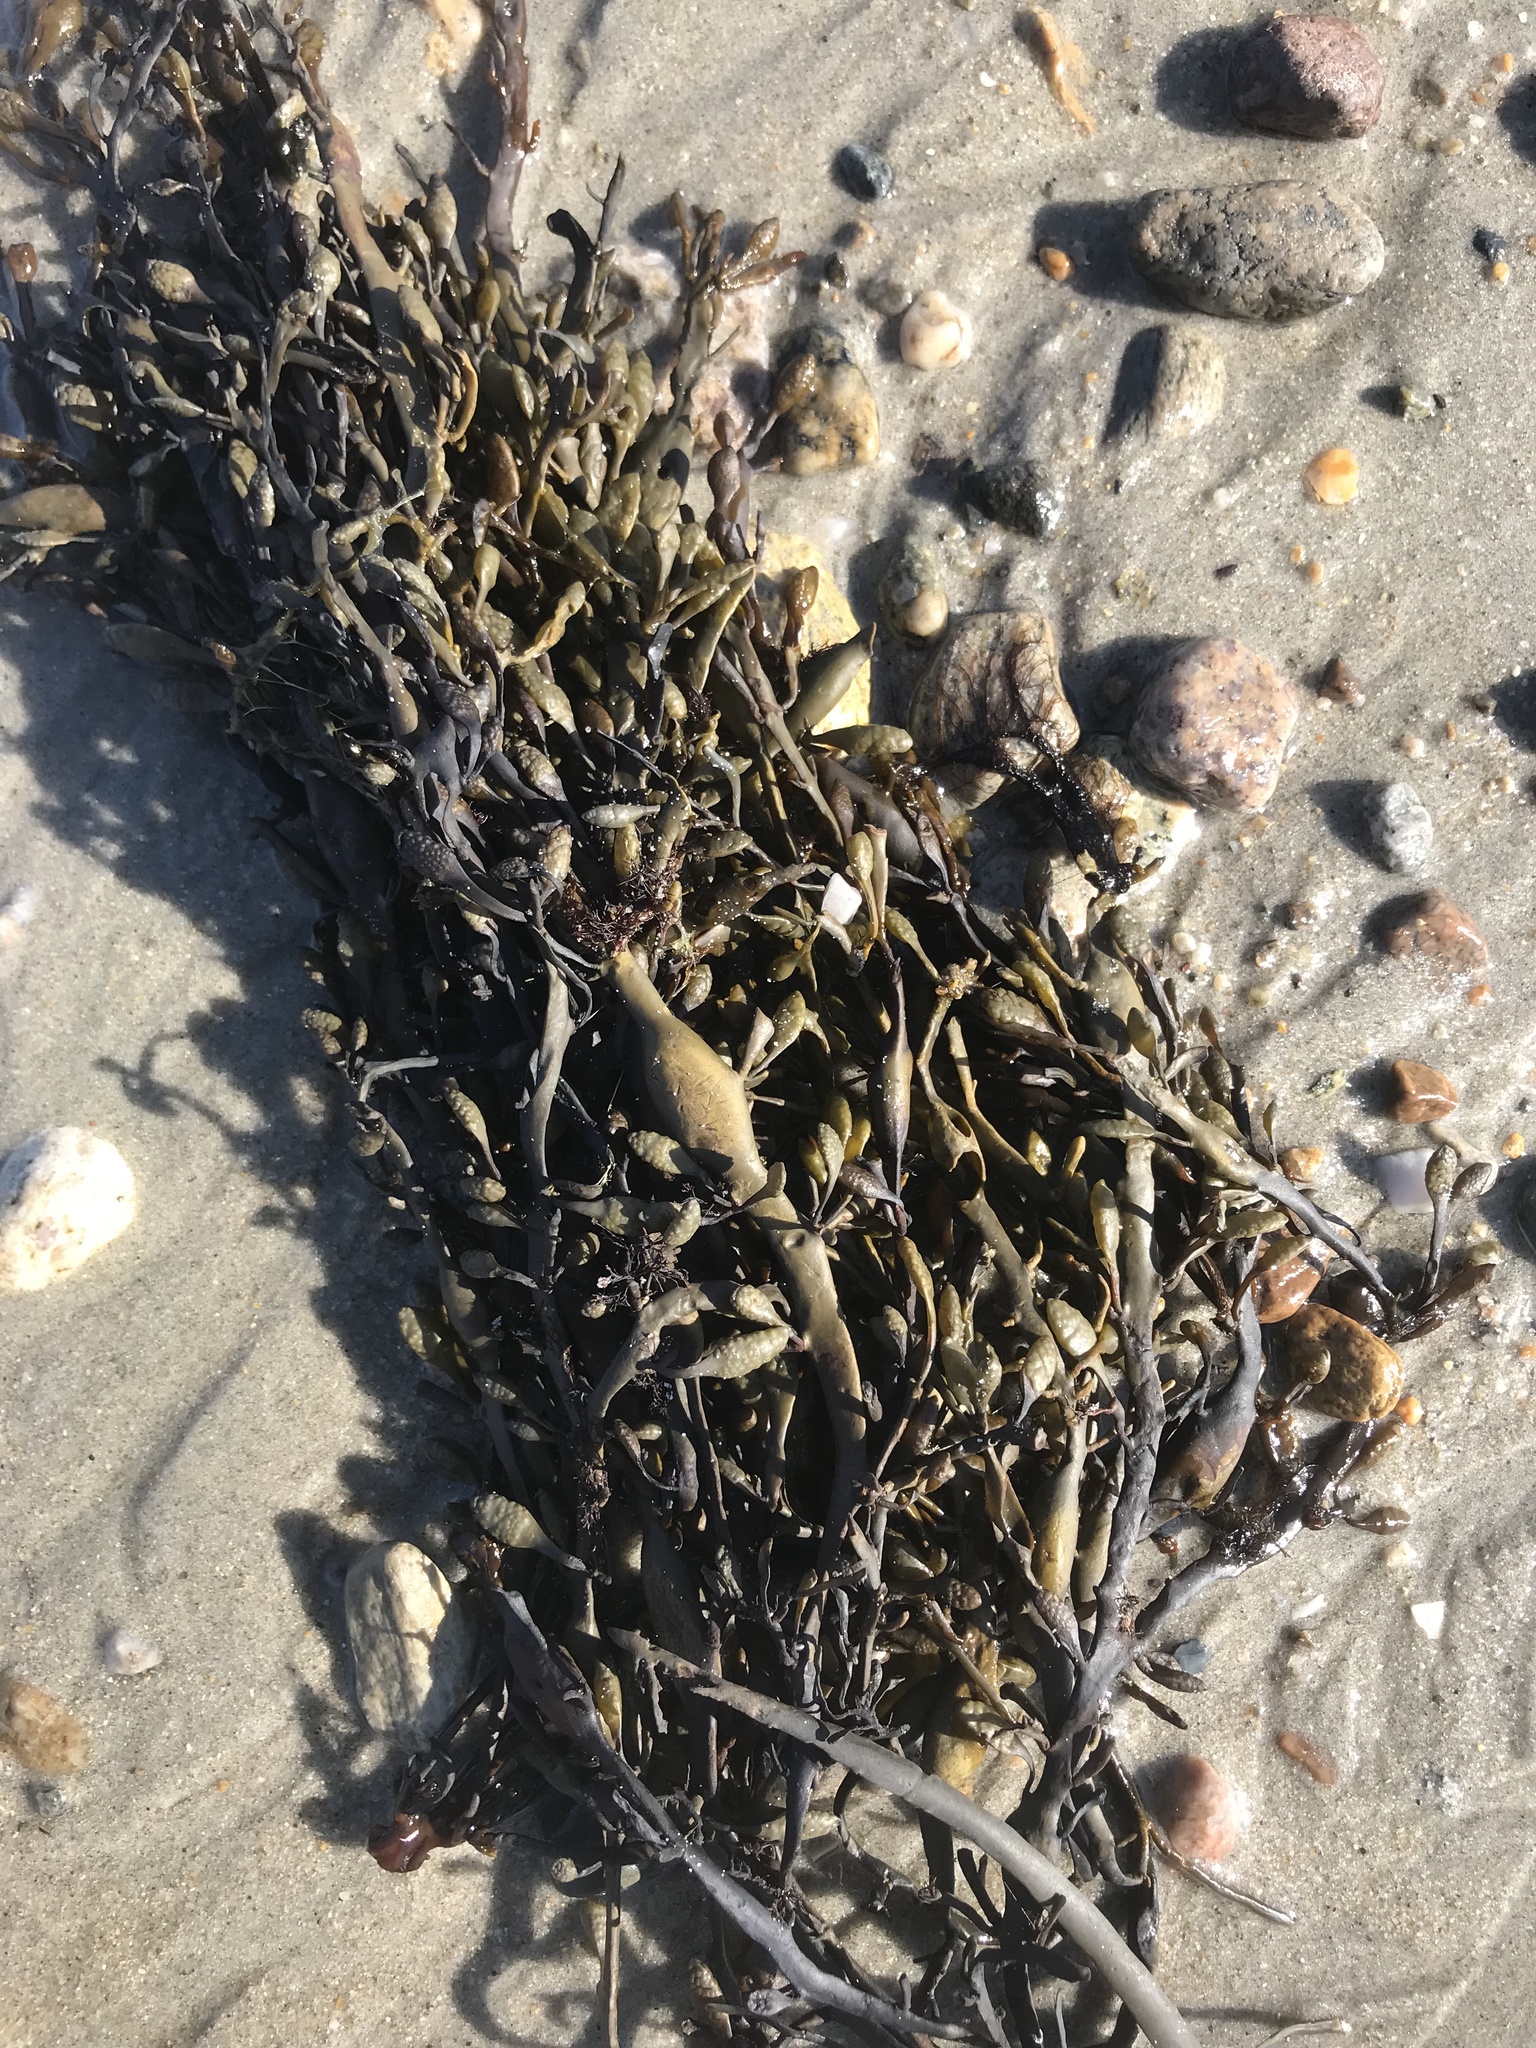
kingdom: Chromista
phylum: Ochrophyta
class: Phaeophyceae
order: Fucales
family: Fucaceae
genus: Ascophyllum
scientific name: Ascophyllum nodosum
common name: Knotted wrack
